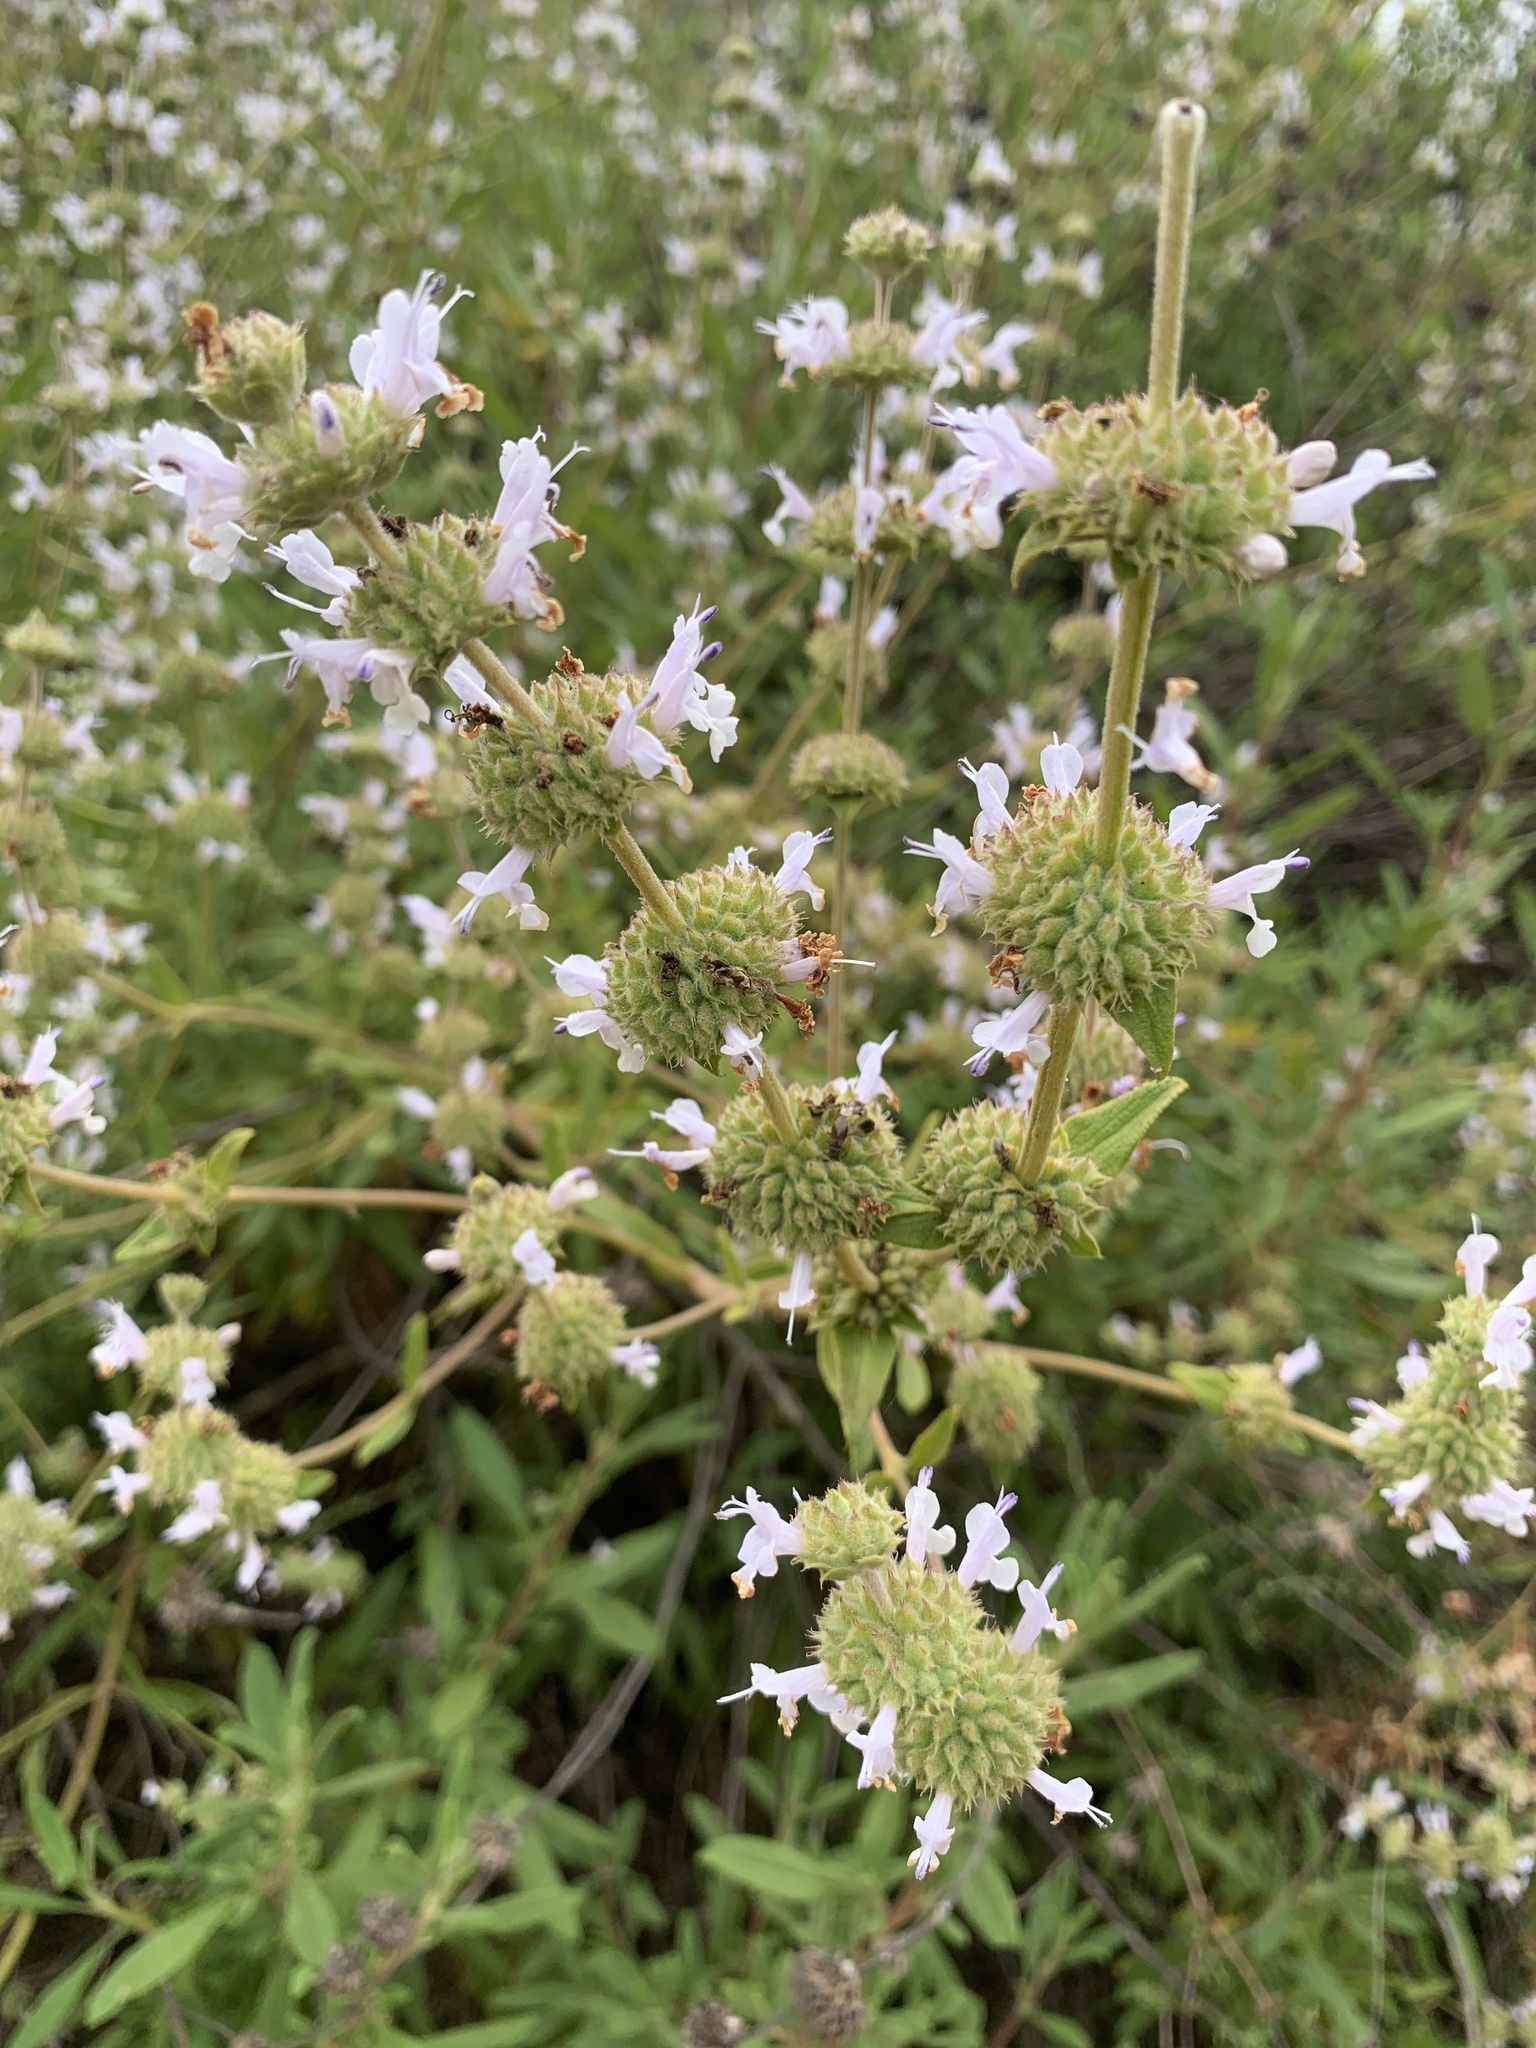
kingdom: Plantae
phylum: Tracheophyta
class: Magnoliopsida
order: Lamiales
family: Lamiaceae
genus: Salvia
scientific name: Salvia mellifera
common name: Black sage
